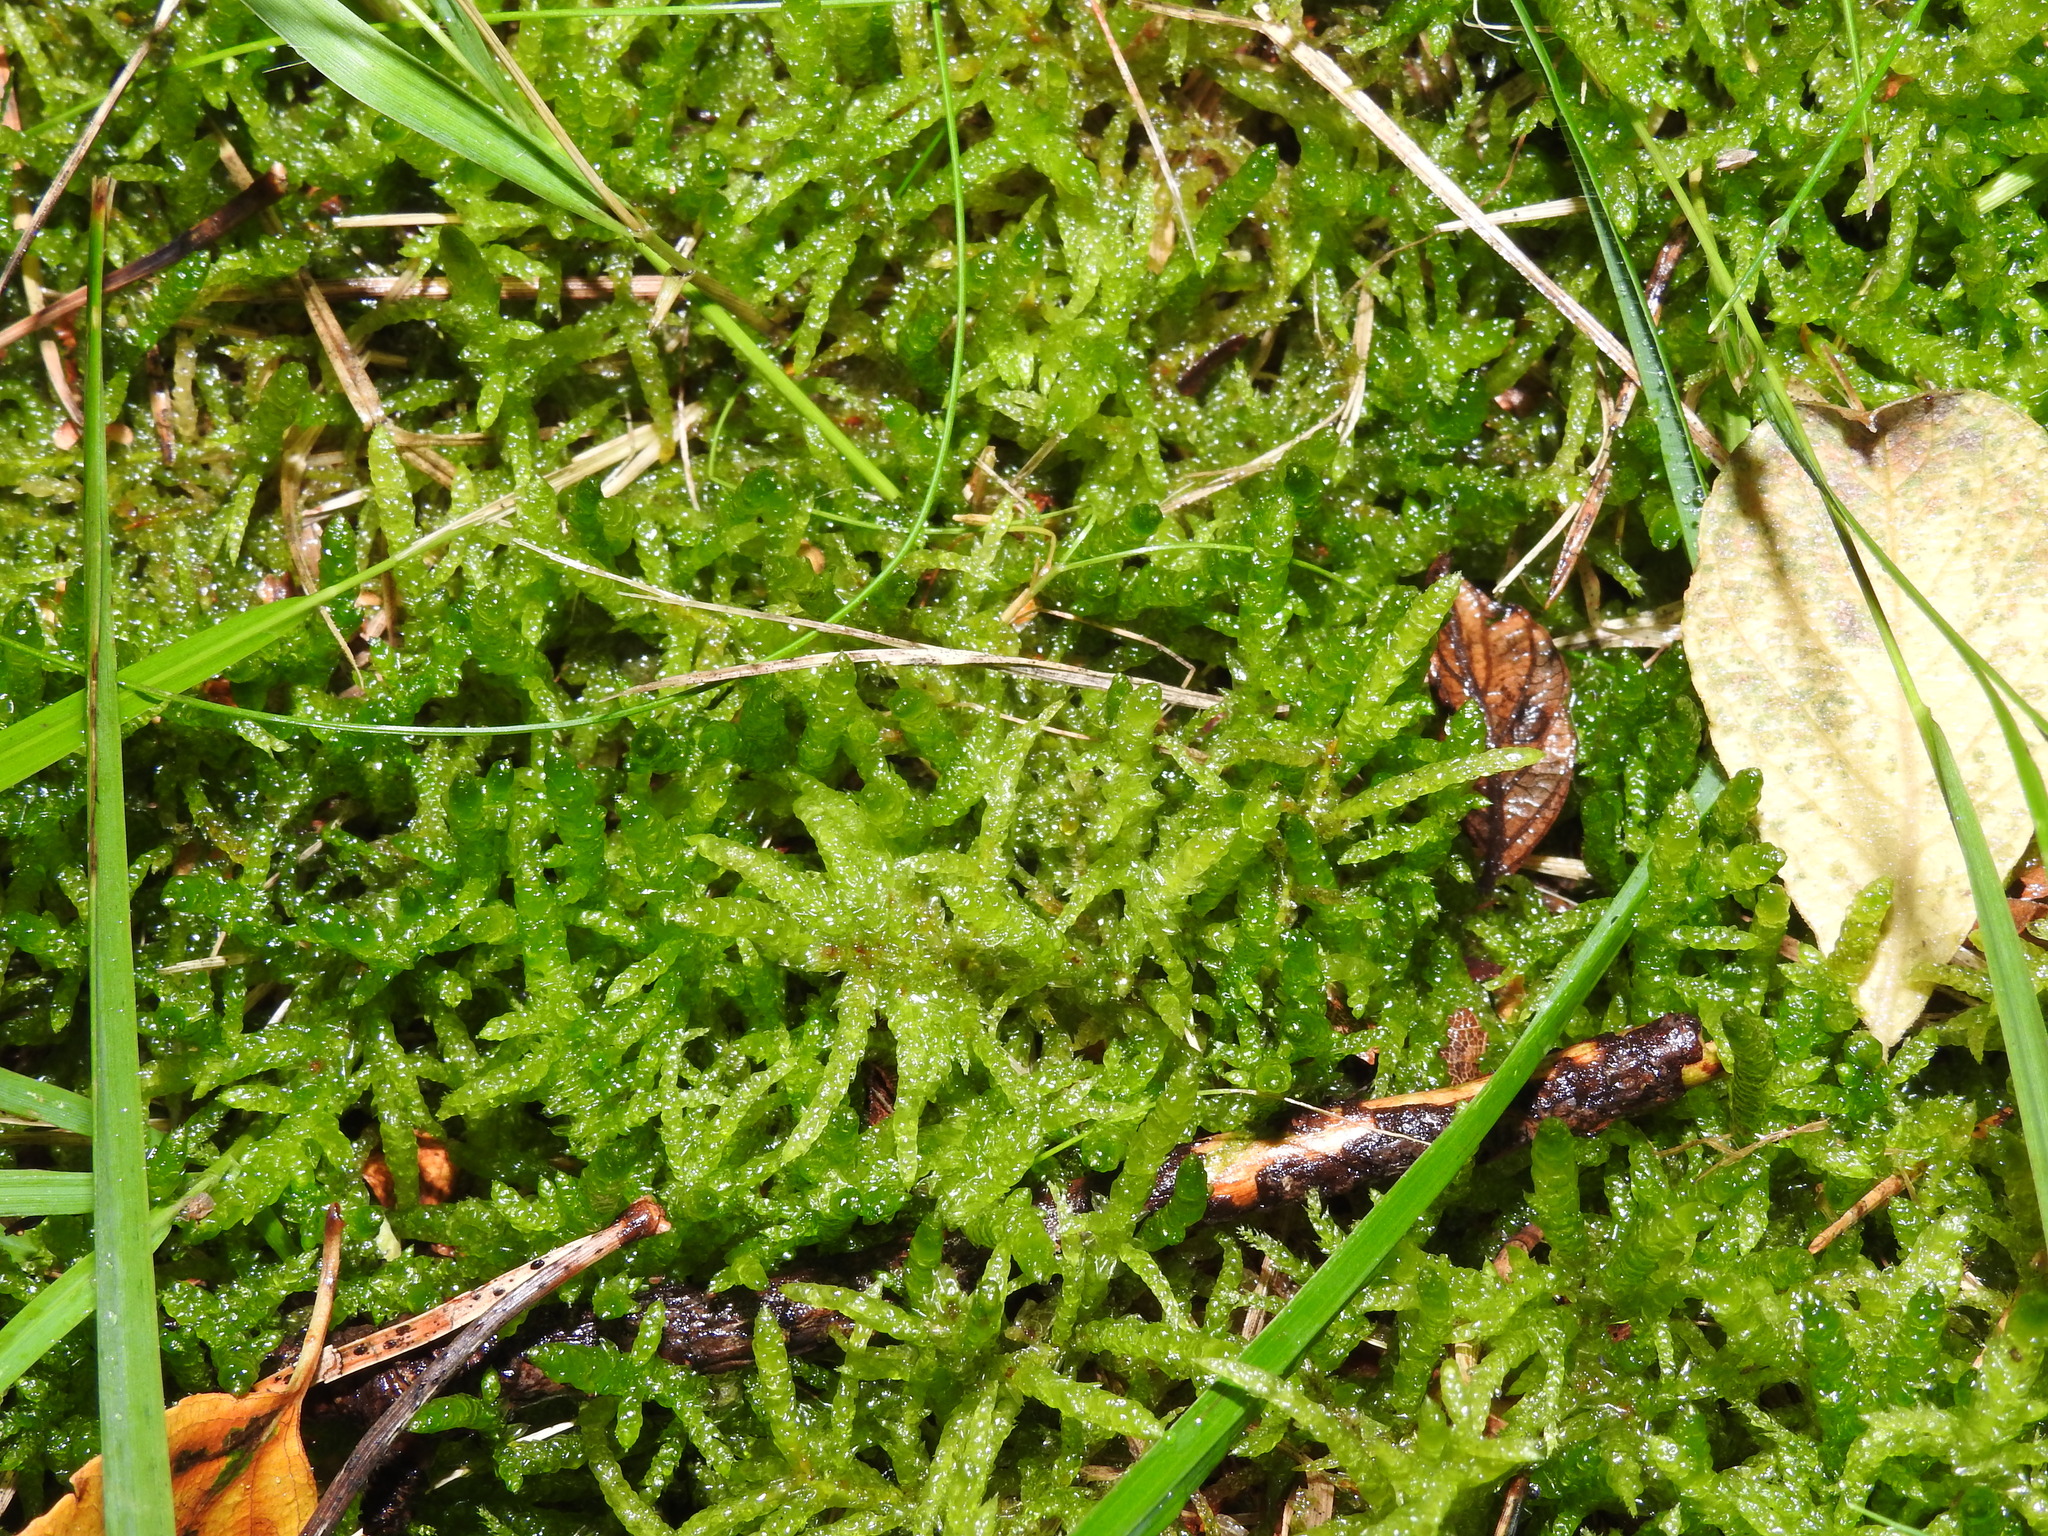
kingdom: Plantae
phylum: Bryophyta
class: Bryopsida
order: Hypnales
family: Brachytheciaceae
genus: Pseudoscleropodium
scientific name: Pseudoscleropodium purum
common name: Neat feather-moss
